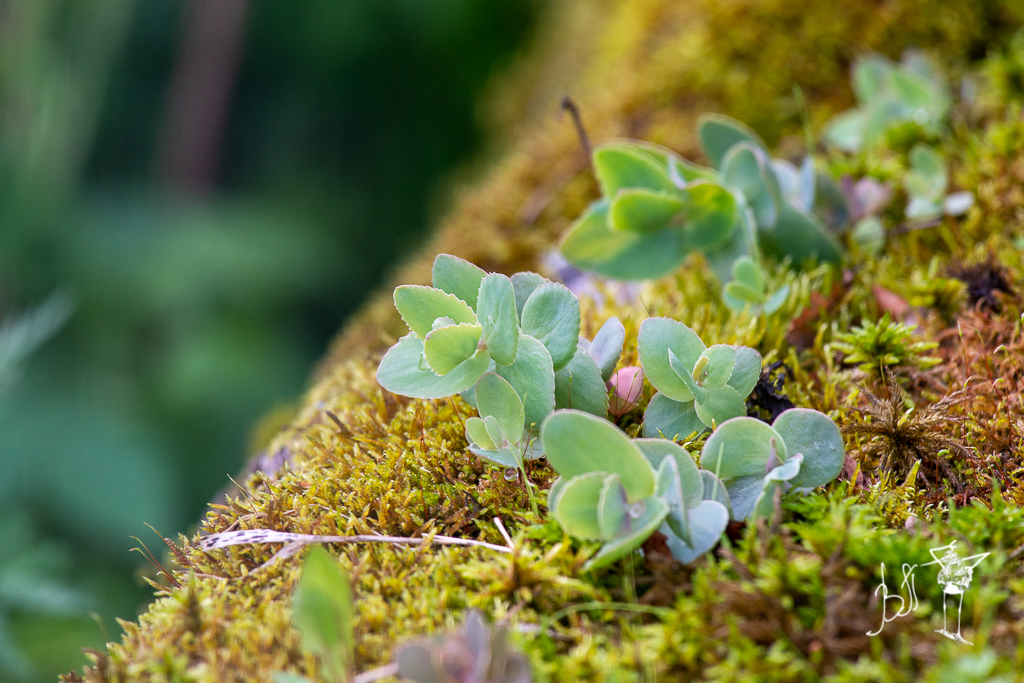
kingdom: Plantae
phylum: Tracheophyta
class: Magnoliopsida
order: Saxifragales
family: Crassulaceae
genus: Hylotelephium
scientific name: Hylotelephium maximum
